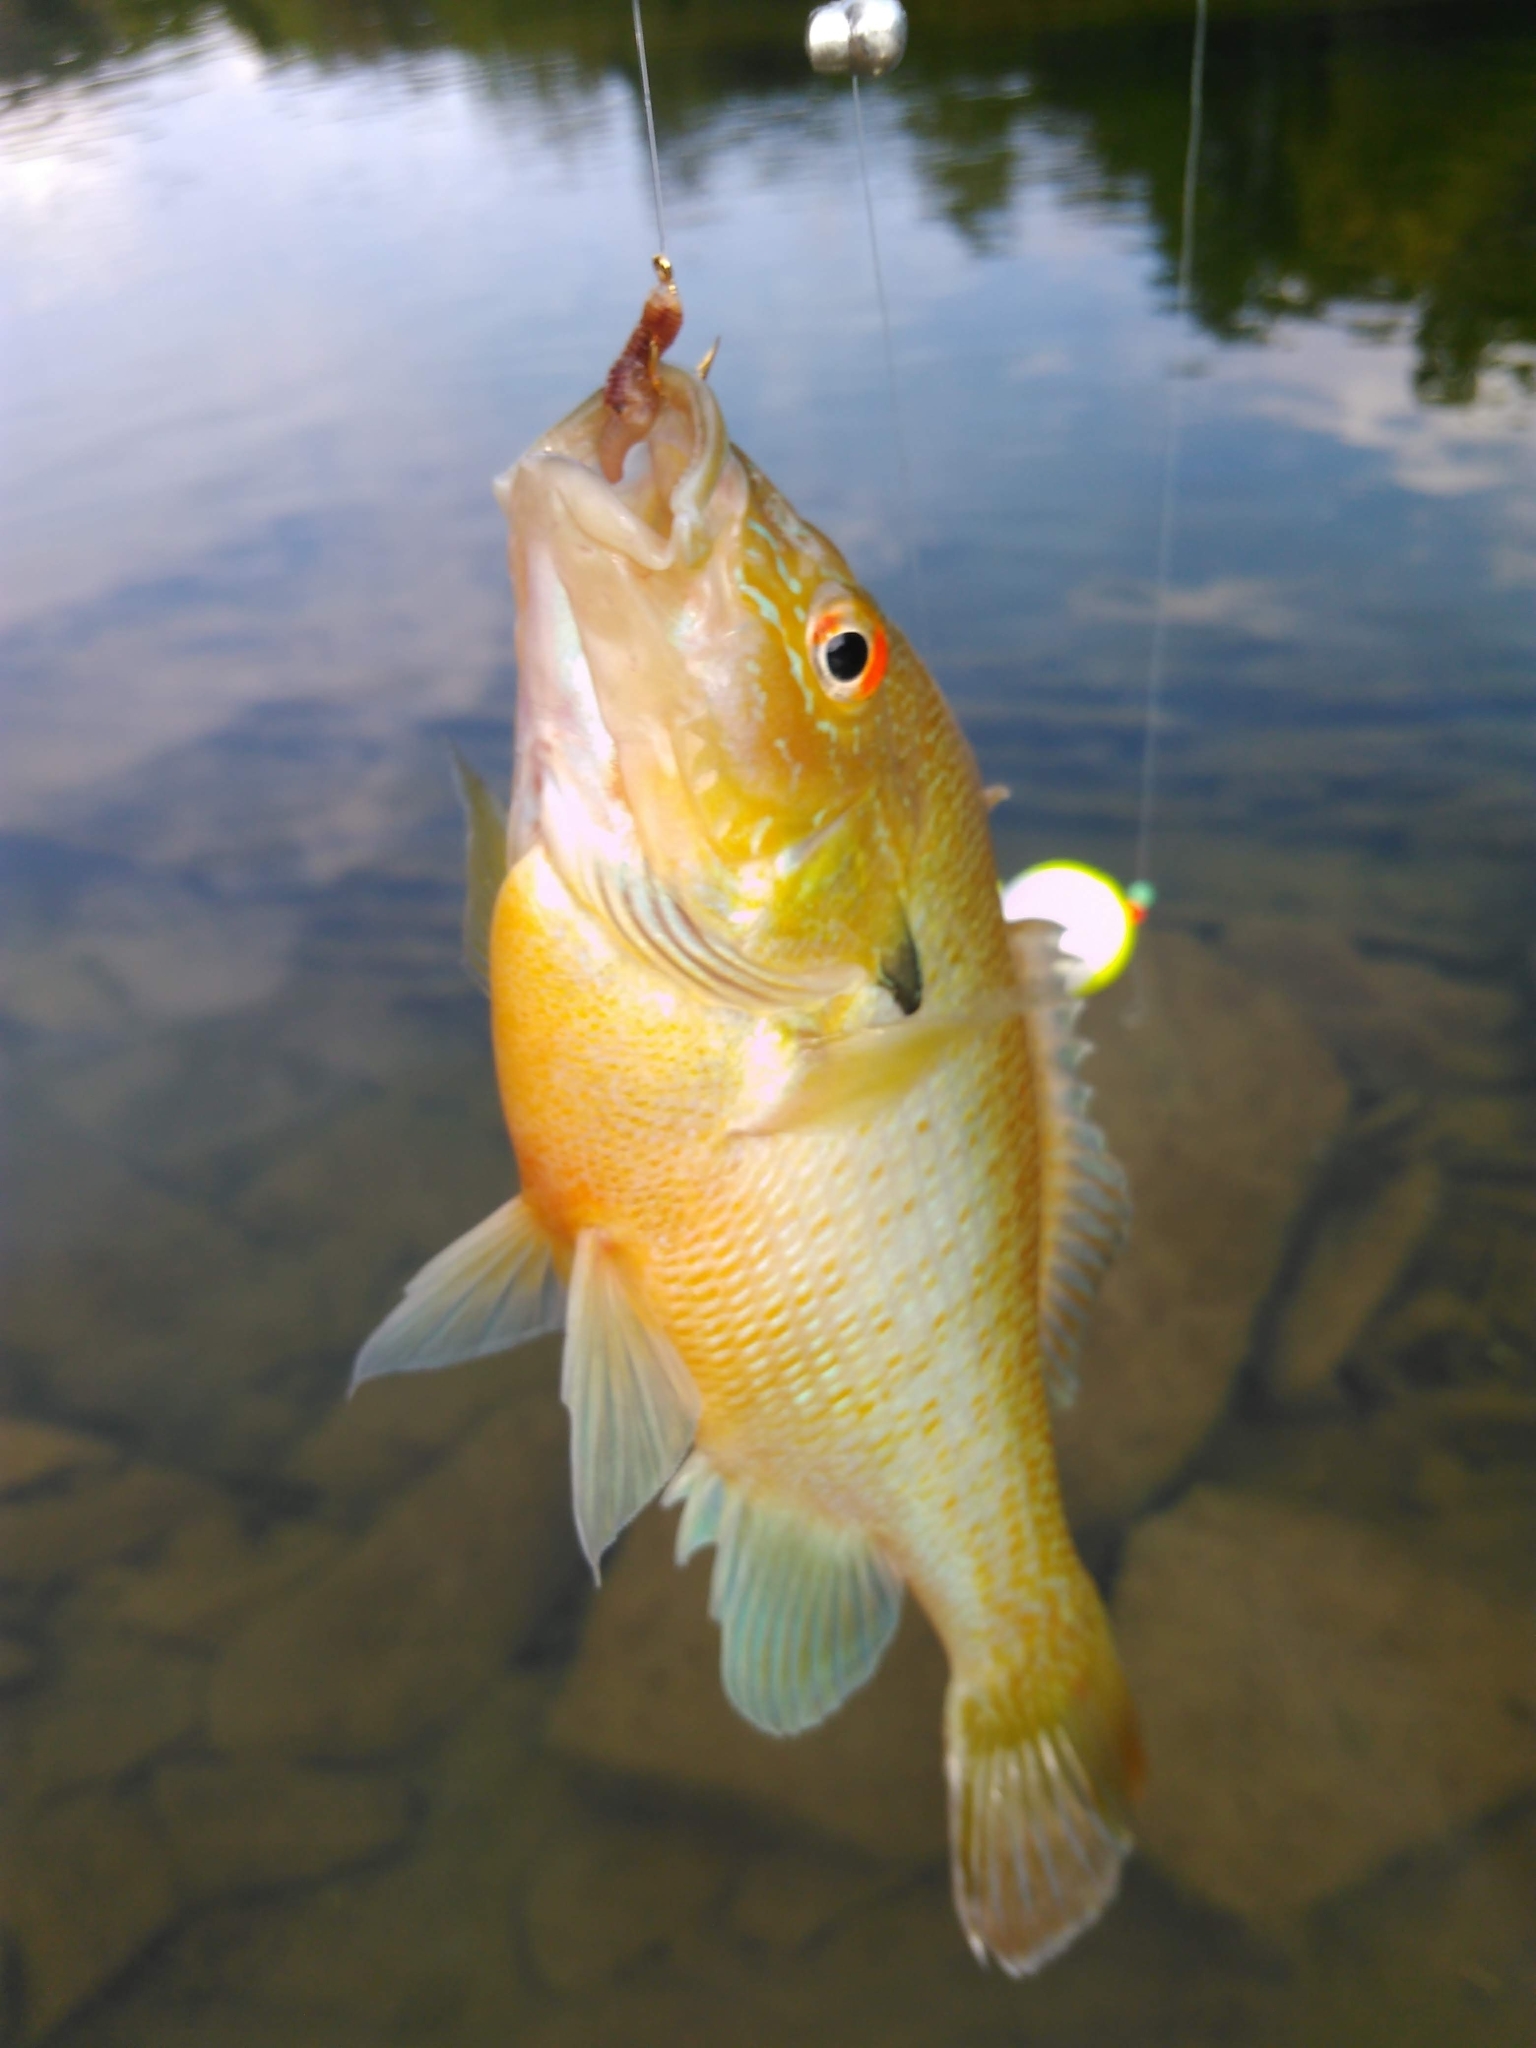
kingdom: Animalia
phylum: Chordata
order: Perciformes
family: Centrarchidae
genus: Lepomis
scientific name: Lepomis auritus
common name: Redbreast sunfish
